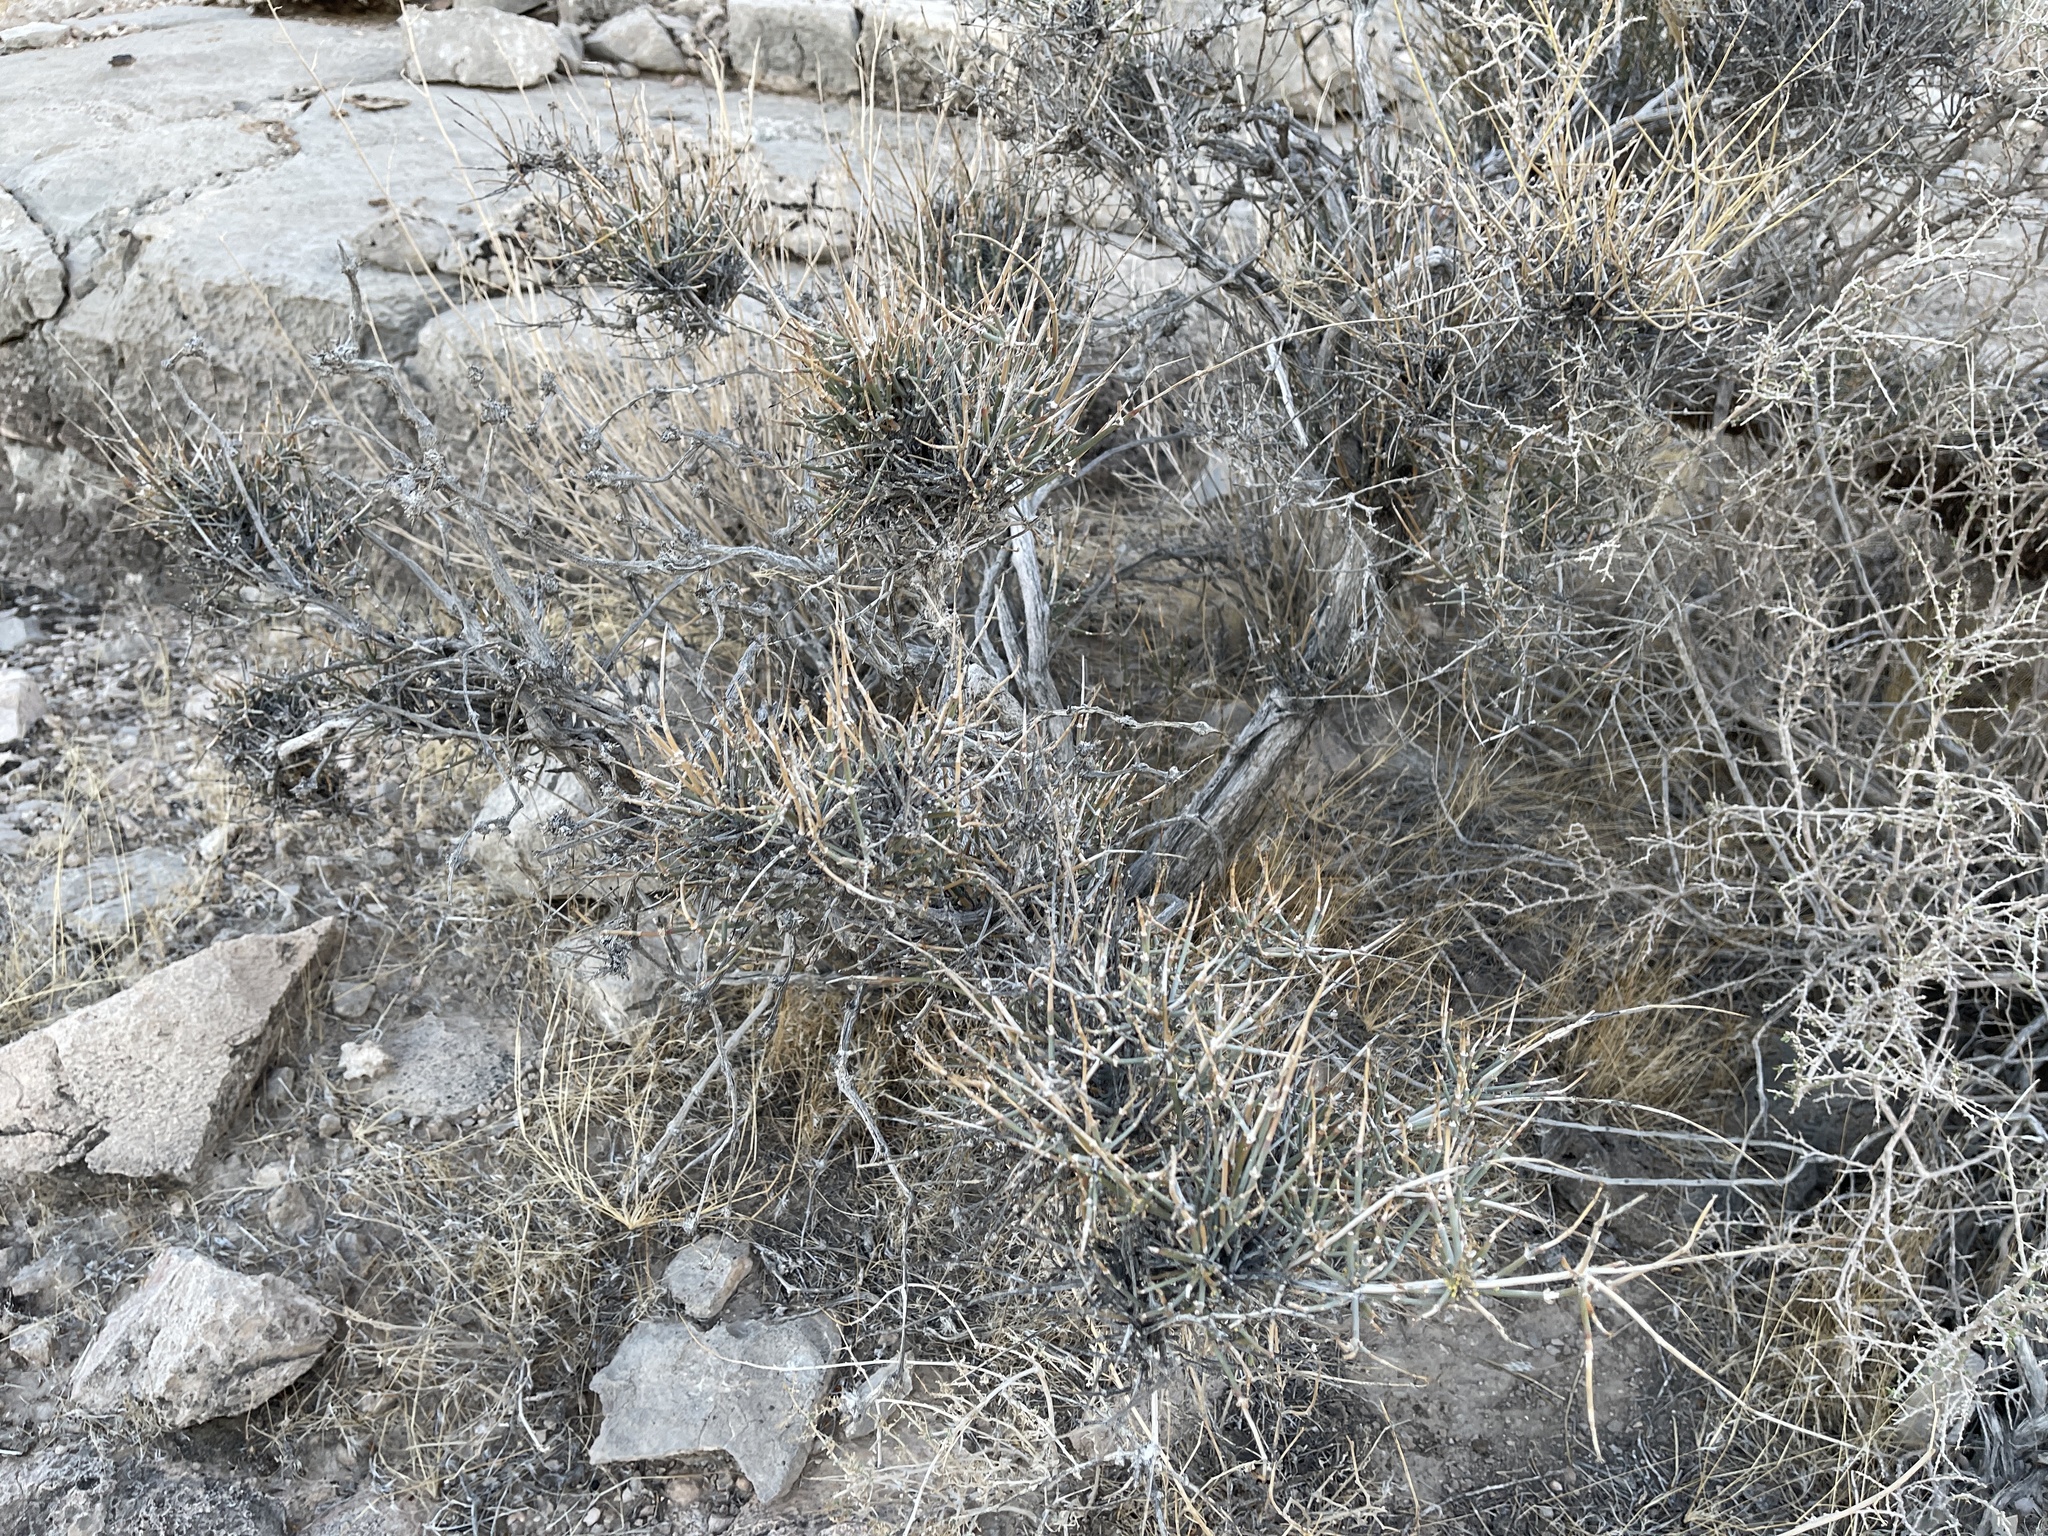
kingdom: Plantae
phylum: Tracheophyta
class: Gnetopsida
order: Ephedrales
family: Ephedraceae
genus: Ephedra
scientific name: Ephedra nevadensis
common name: Gray ephedra
